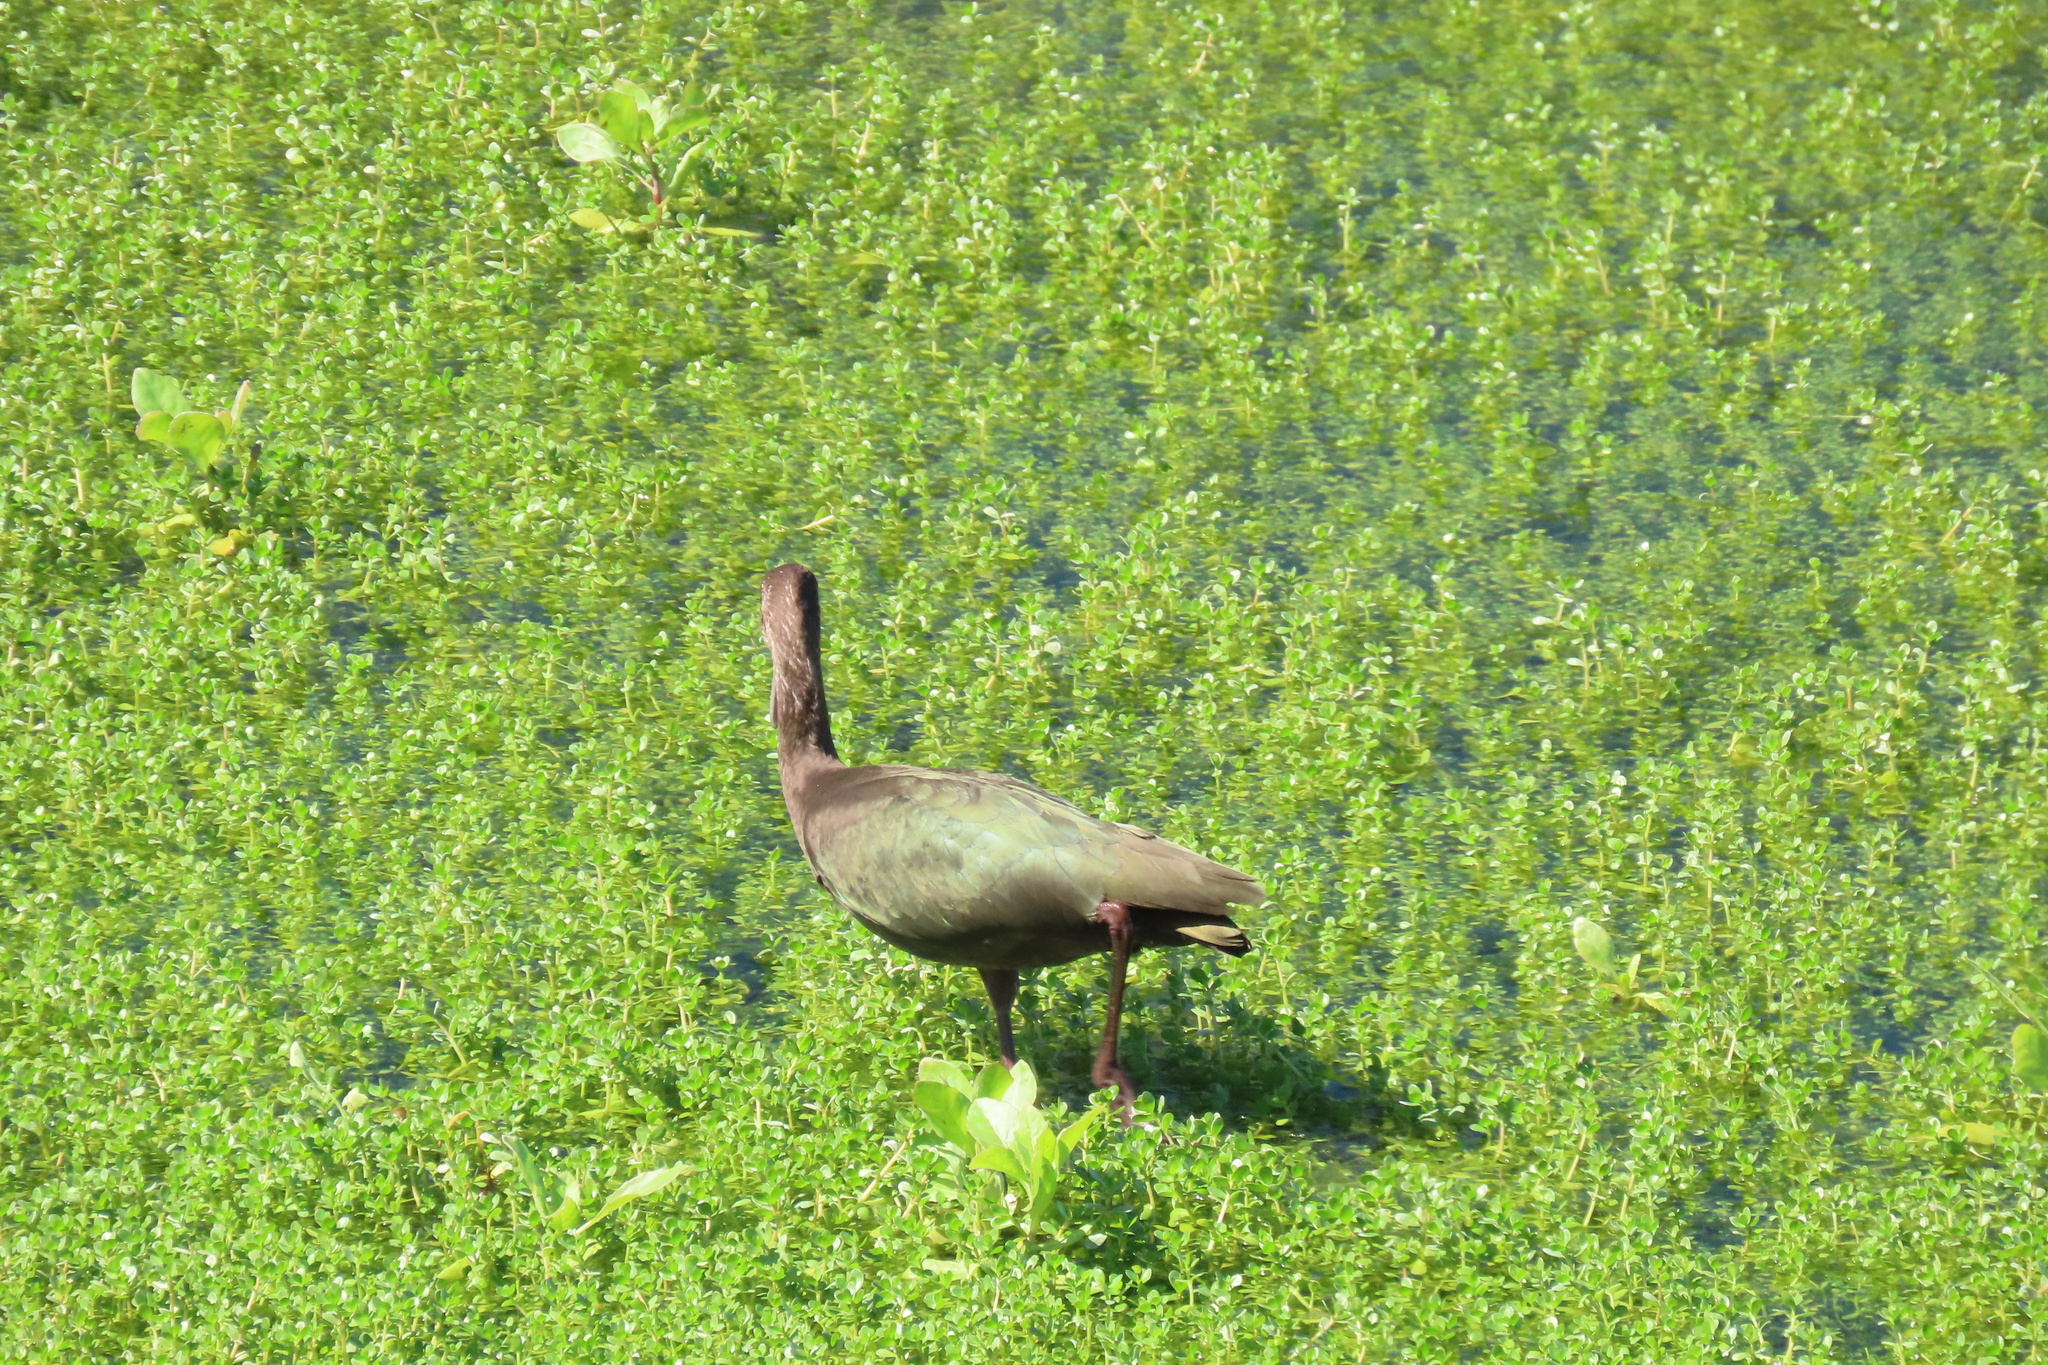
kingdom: Animalia
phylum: Chordata
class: Aves
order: Pelecaniformes
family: Threskiornithidae
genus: Plegadis
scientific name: Plegadis chihi
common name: White-faced ibis
